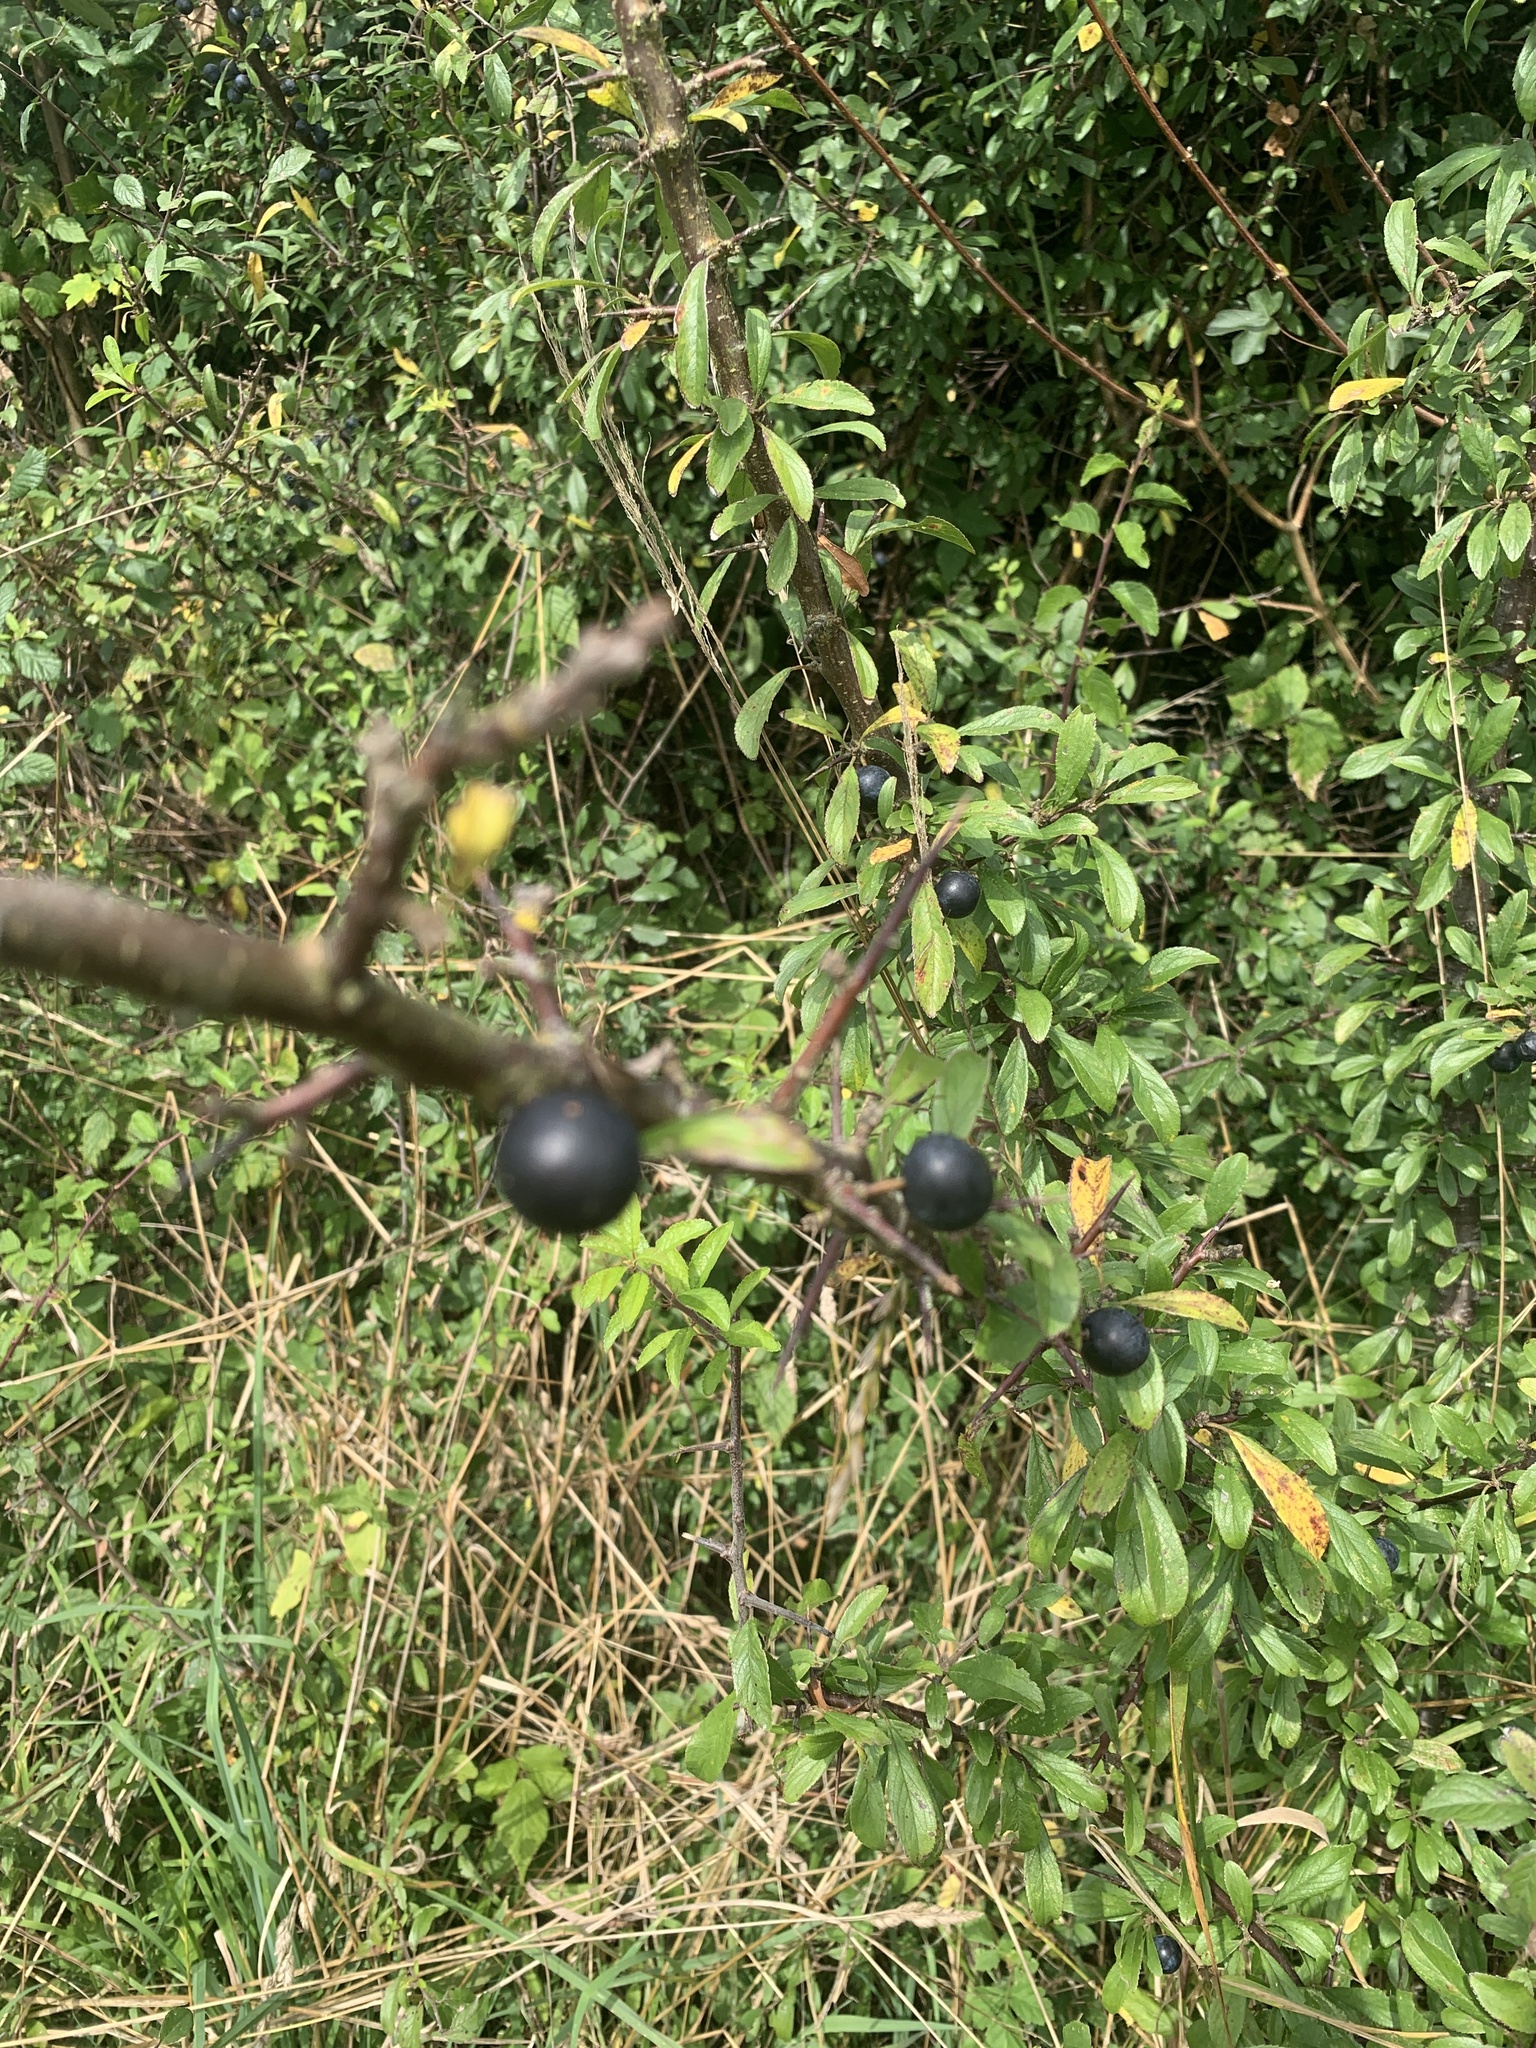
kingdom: Plantae
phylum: Tracheophyta
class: Magnoliopsida
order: Rosales
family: Rosaceae
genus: Prunus
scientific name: Prunus spinosa
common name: Blackthorn
